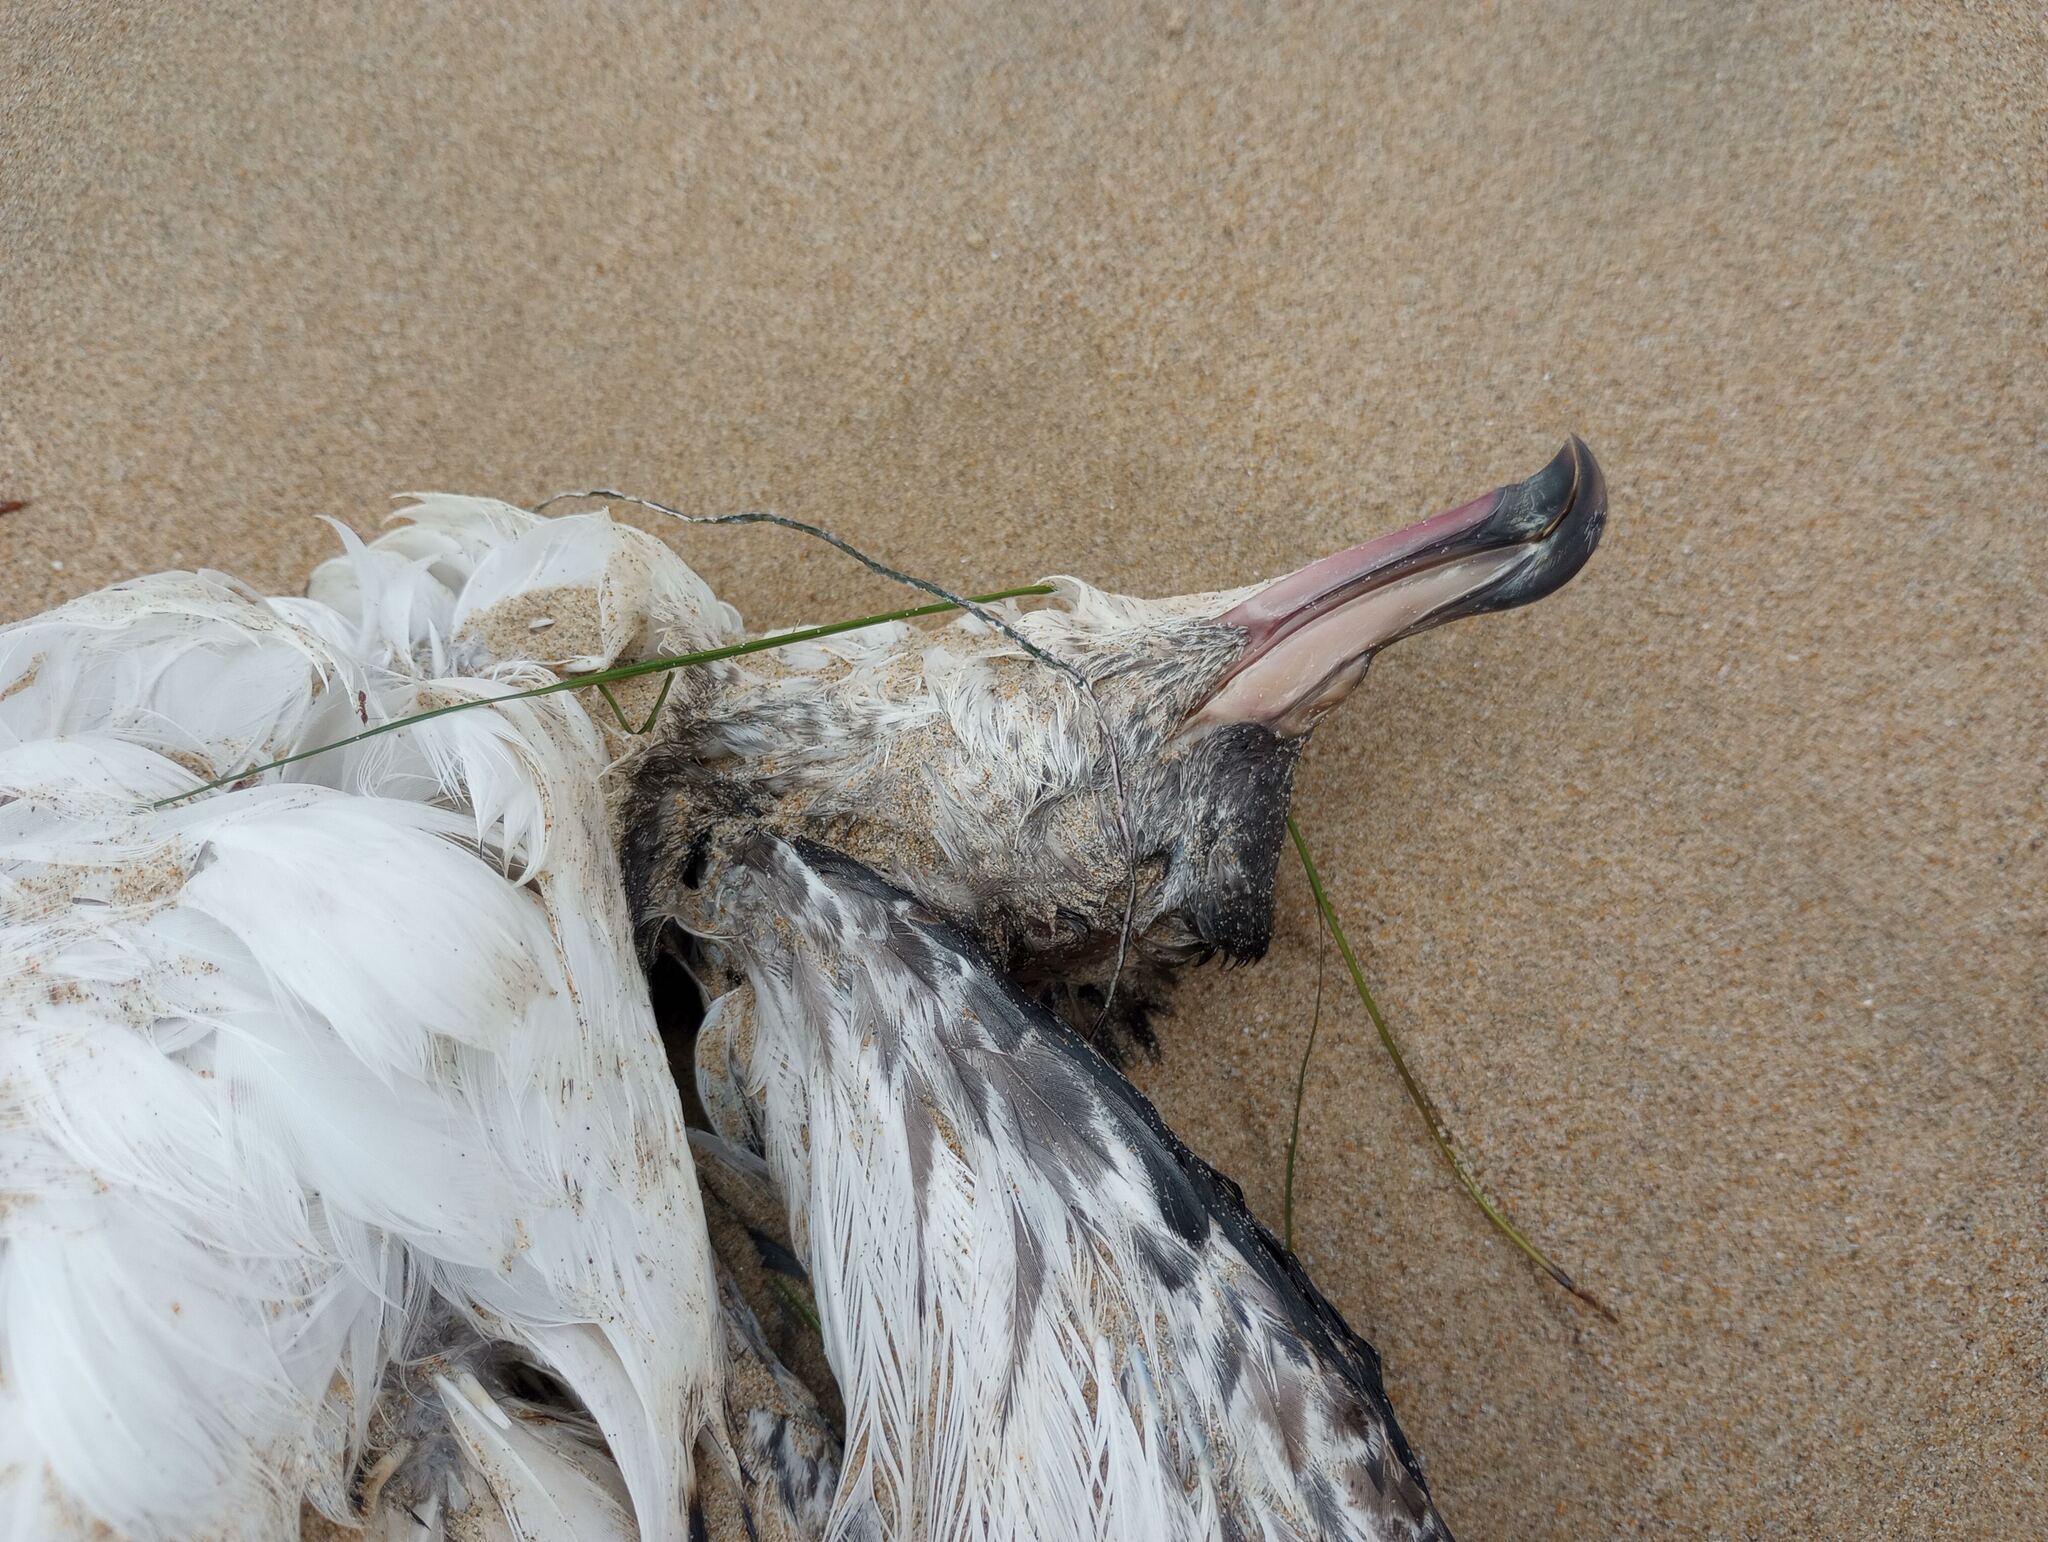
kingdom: Animalia
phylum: Chordata
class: Aves
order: Procellariiformes
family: Procellariidae
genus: Puffinus
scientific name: Puffinus creatopus
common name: Pink-footed shearwater
